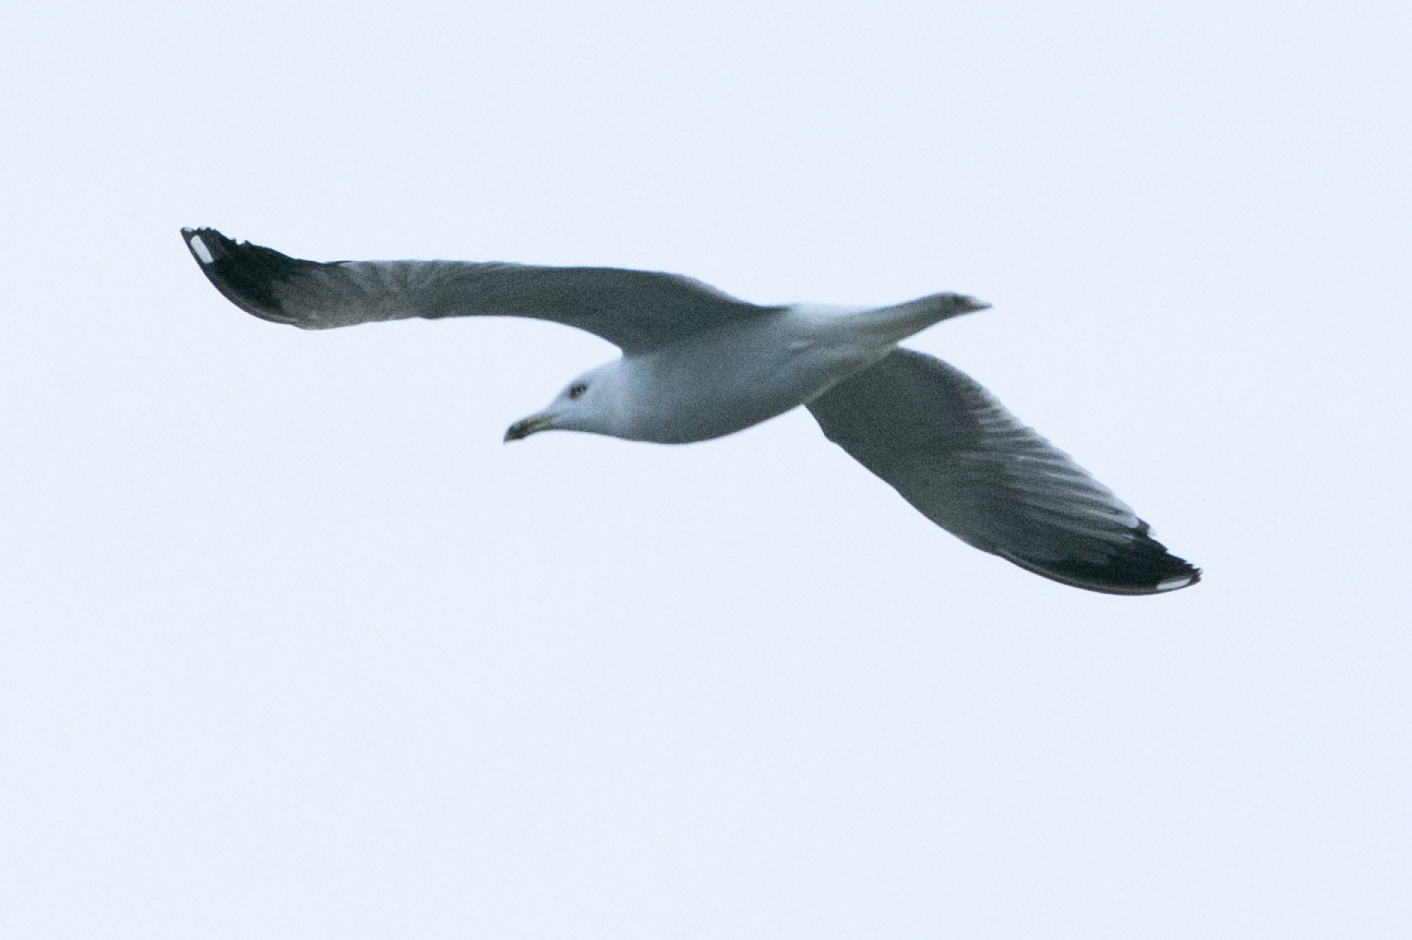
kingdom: Animalia
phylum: Chordata
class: Aves
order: Charadriiformes
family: Laridae
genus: Larus
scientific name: Larus michahellis
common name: Yellow-legged gull
